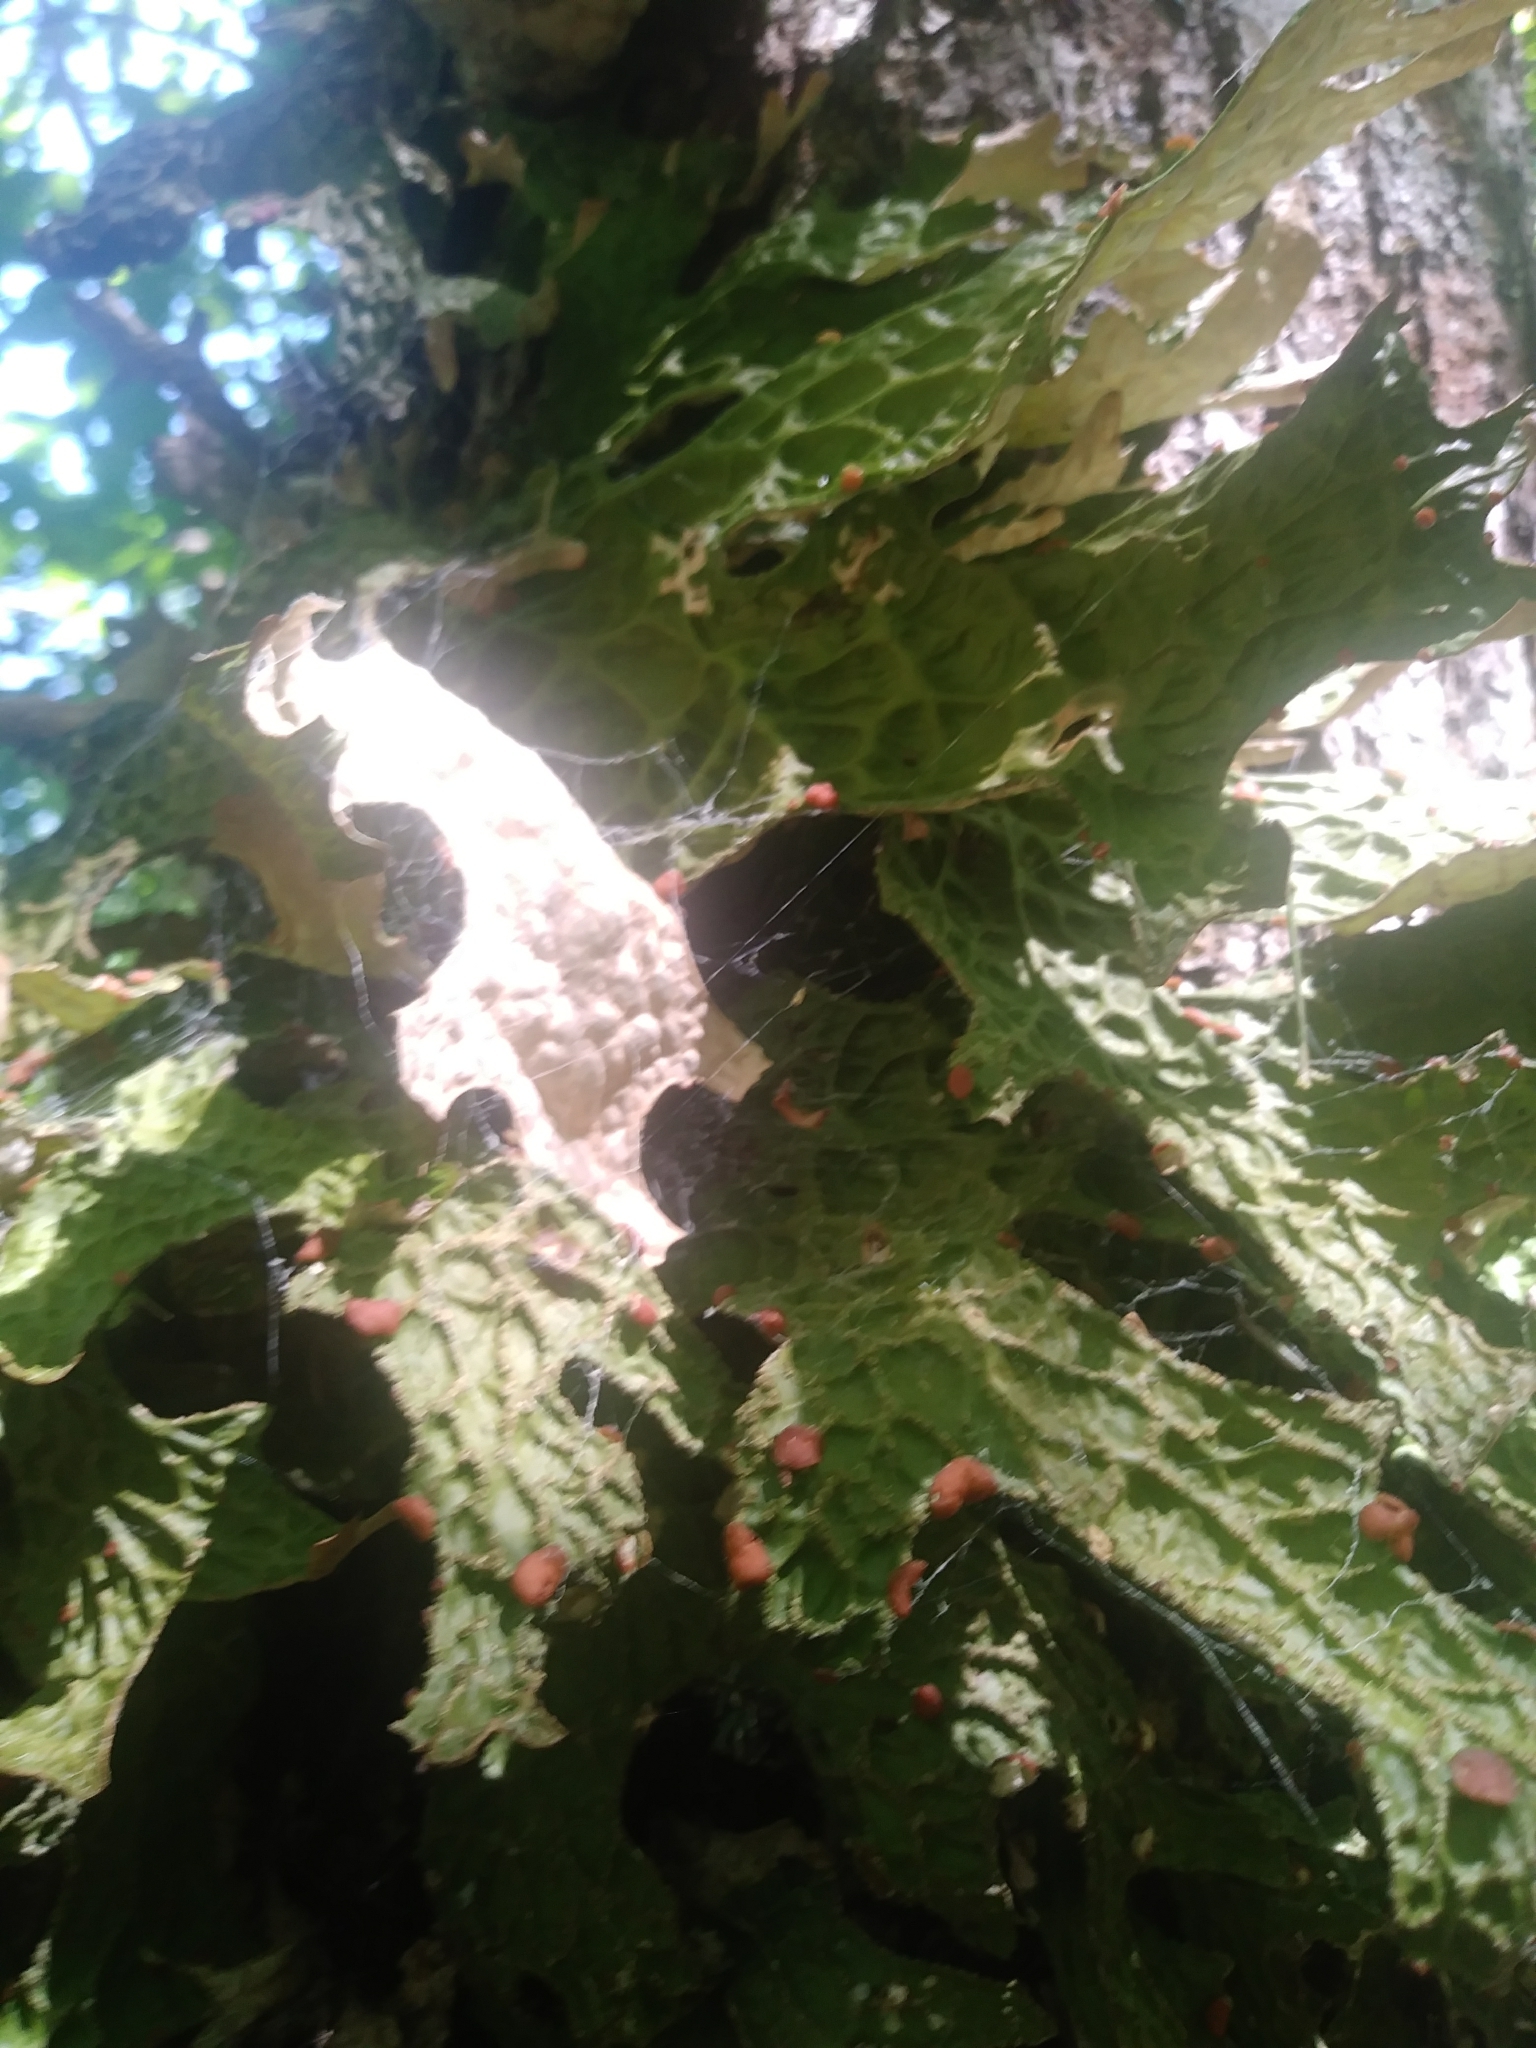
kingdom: Fungi
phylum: Ascomycota
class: Lecanoromycetes
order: Peltigerales
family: Lobariaceae
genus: Lobaria
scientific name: Lobaria pulmonaria
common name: Lungwort
